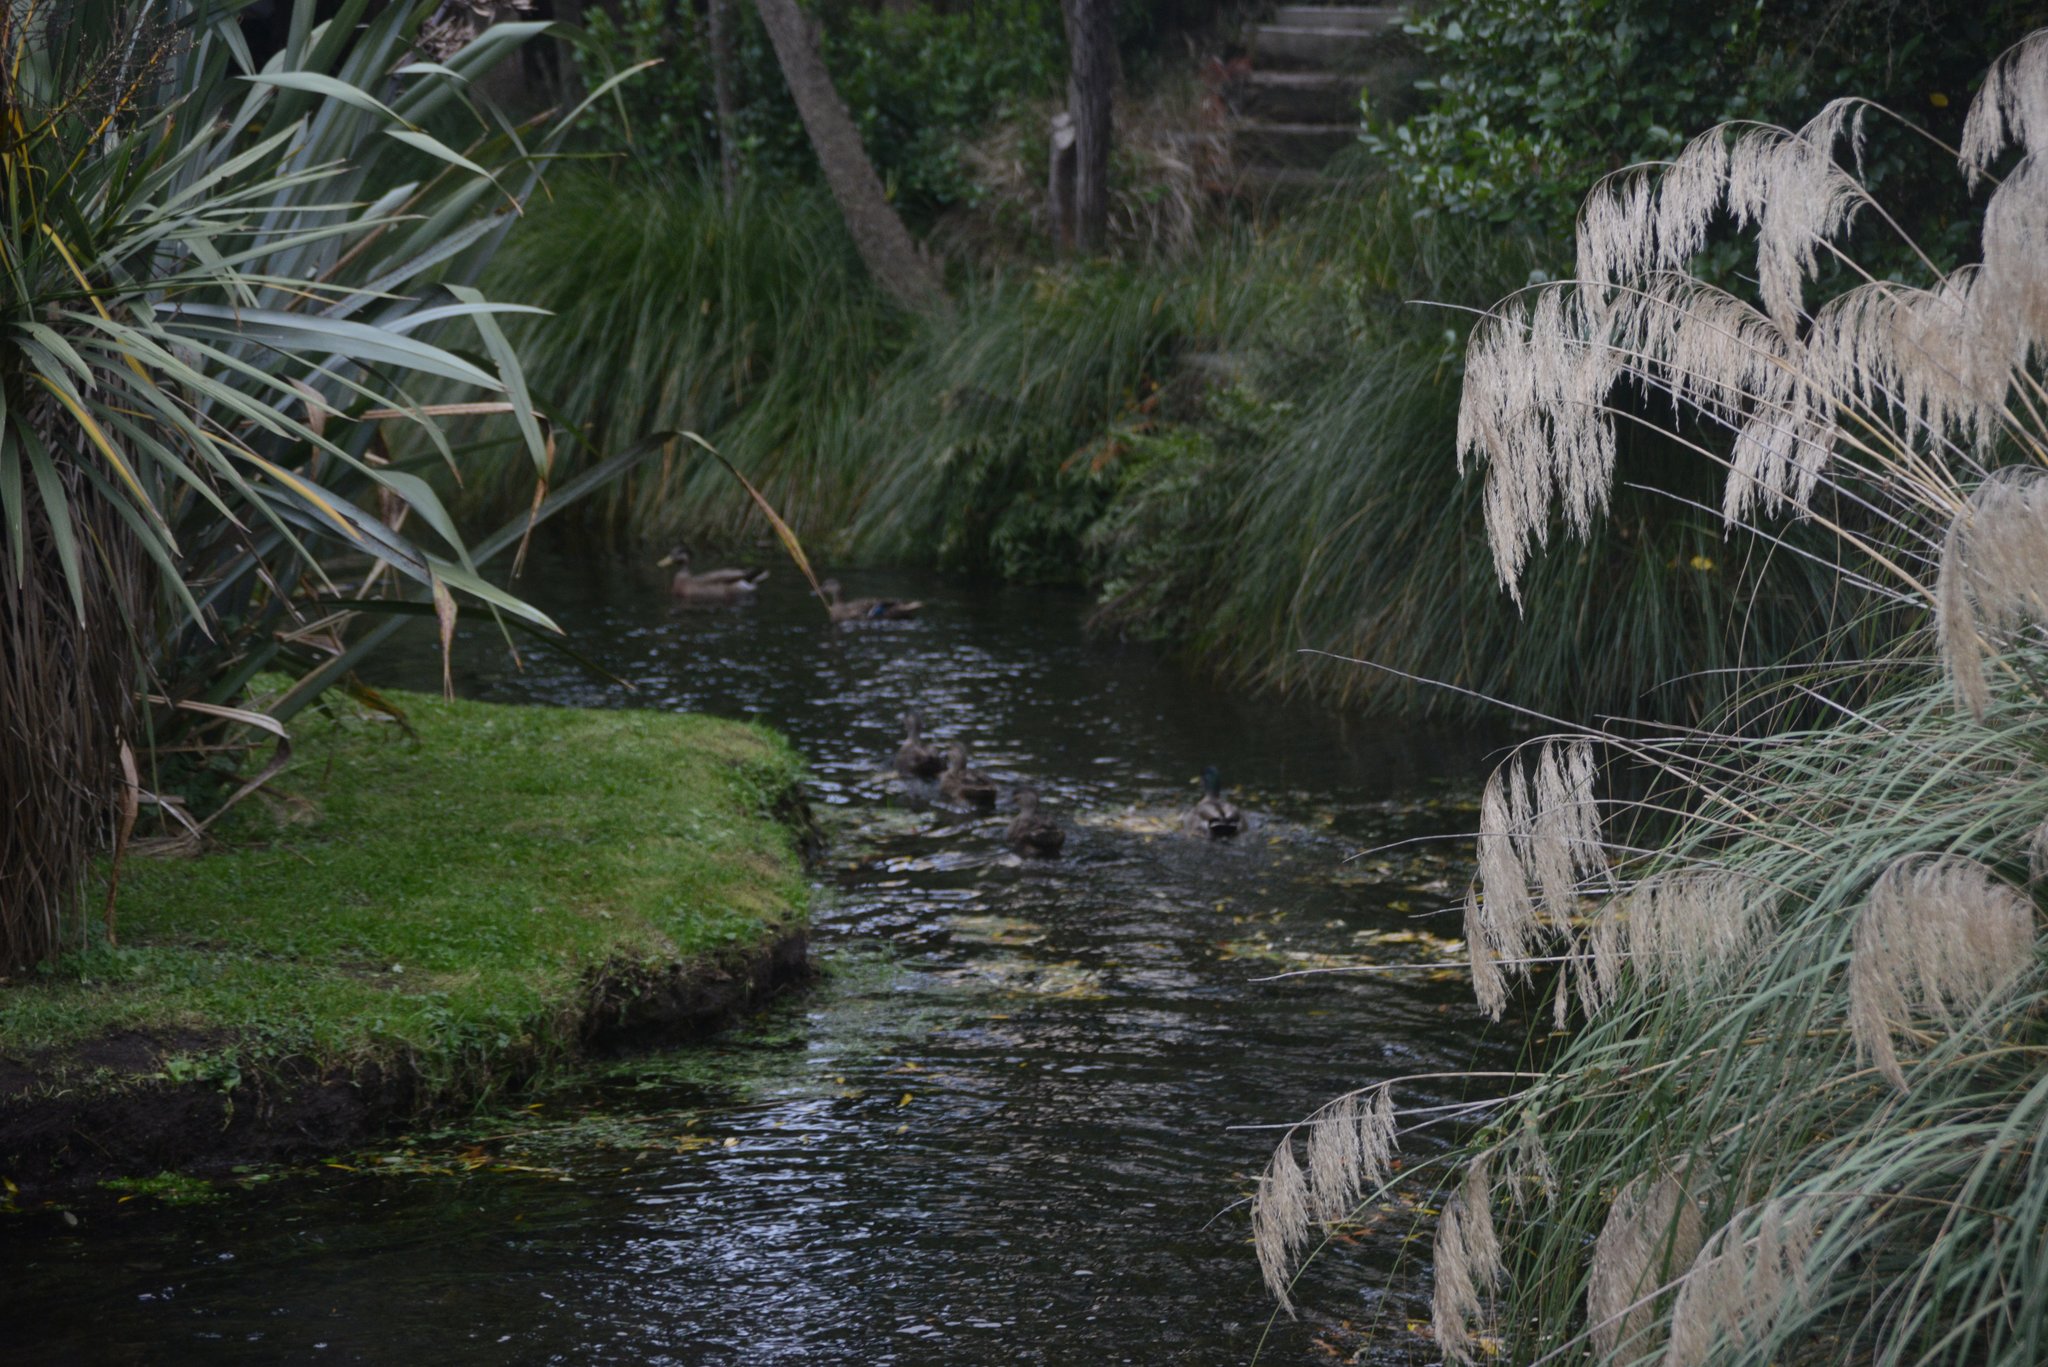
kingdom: Animalia
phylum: Chordata
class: Aves
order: Anseriformes
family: Anatidae
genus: Anas
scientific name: Anas
